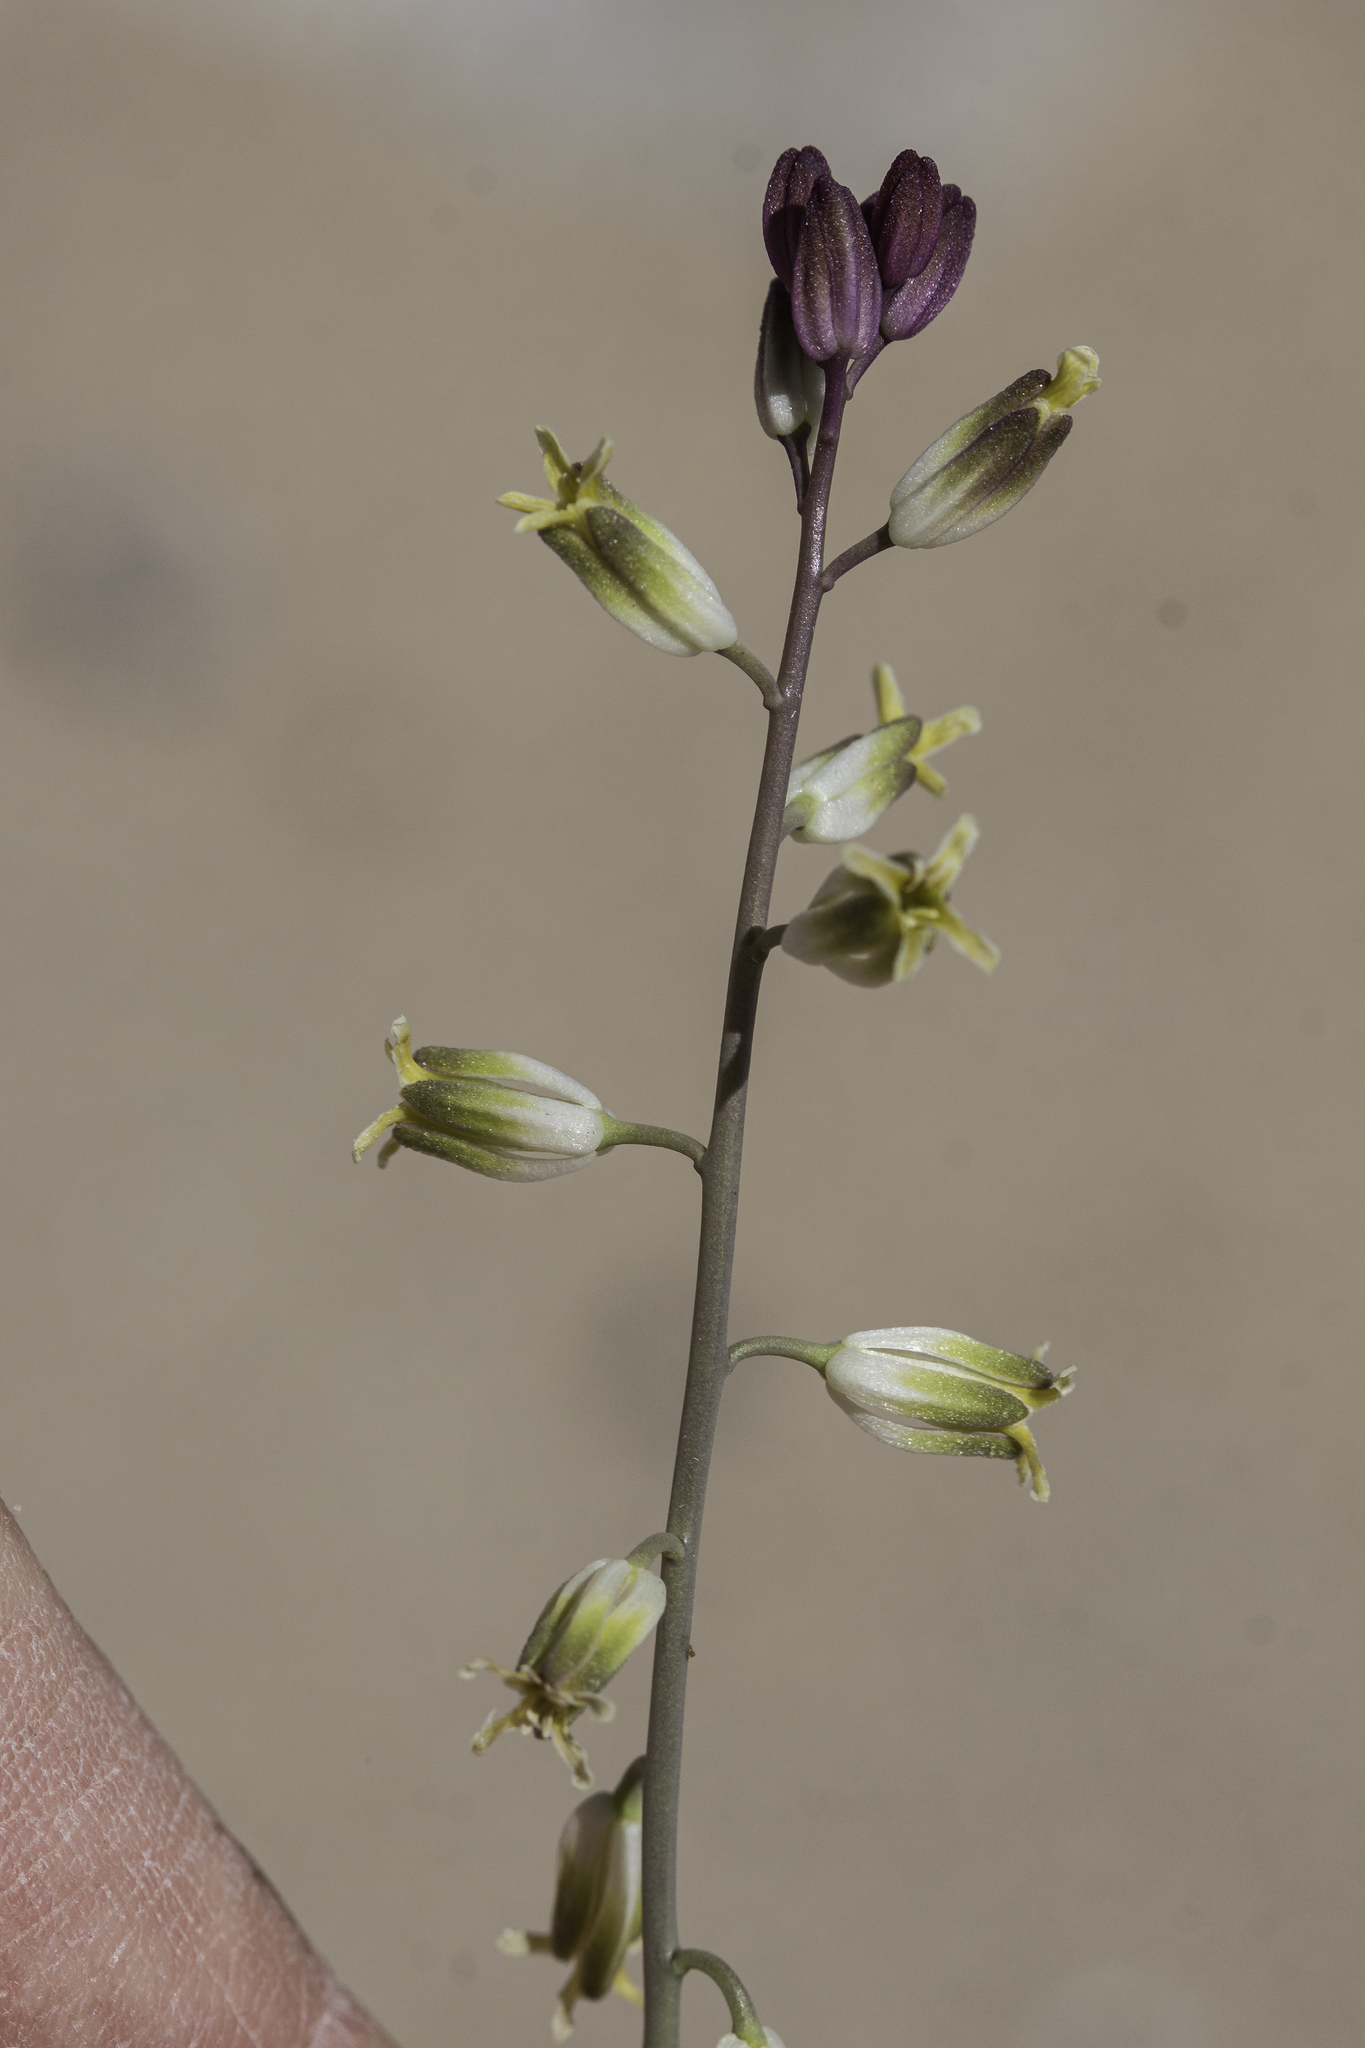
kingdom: Plantae
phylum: Tracheophyta
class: Magnoliopsida
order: Brassicales
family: Brassicaceae
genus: Streptanthus
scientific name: Streptanthus longirostris
